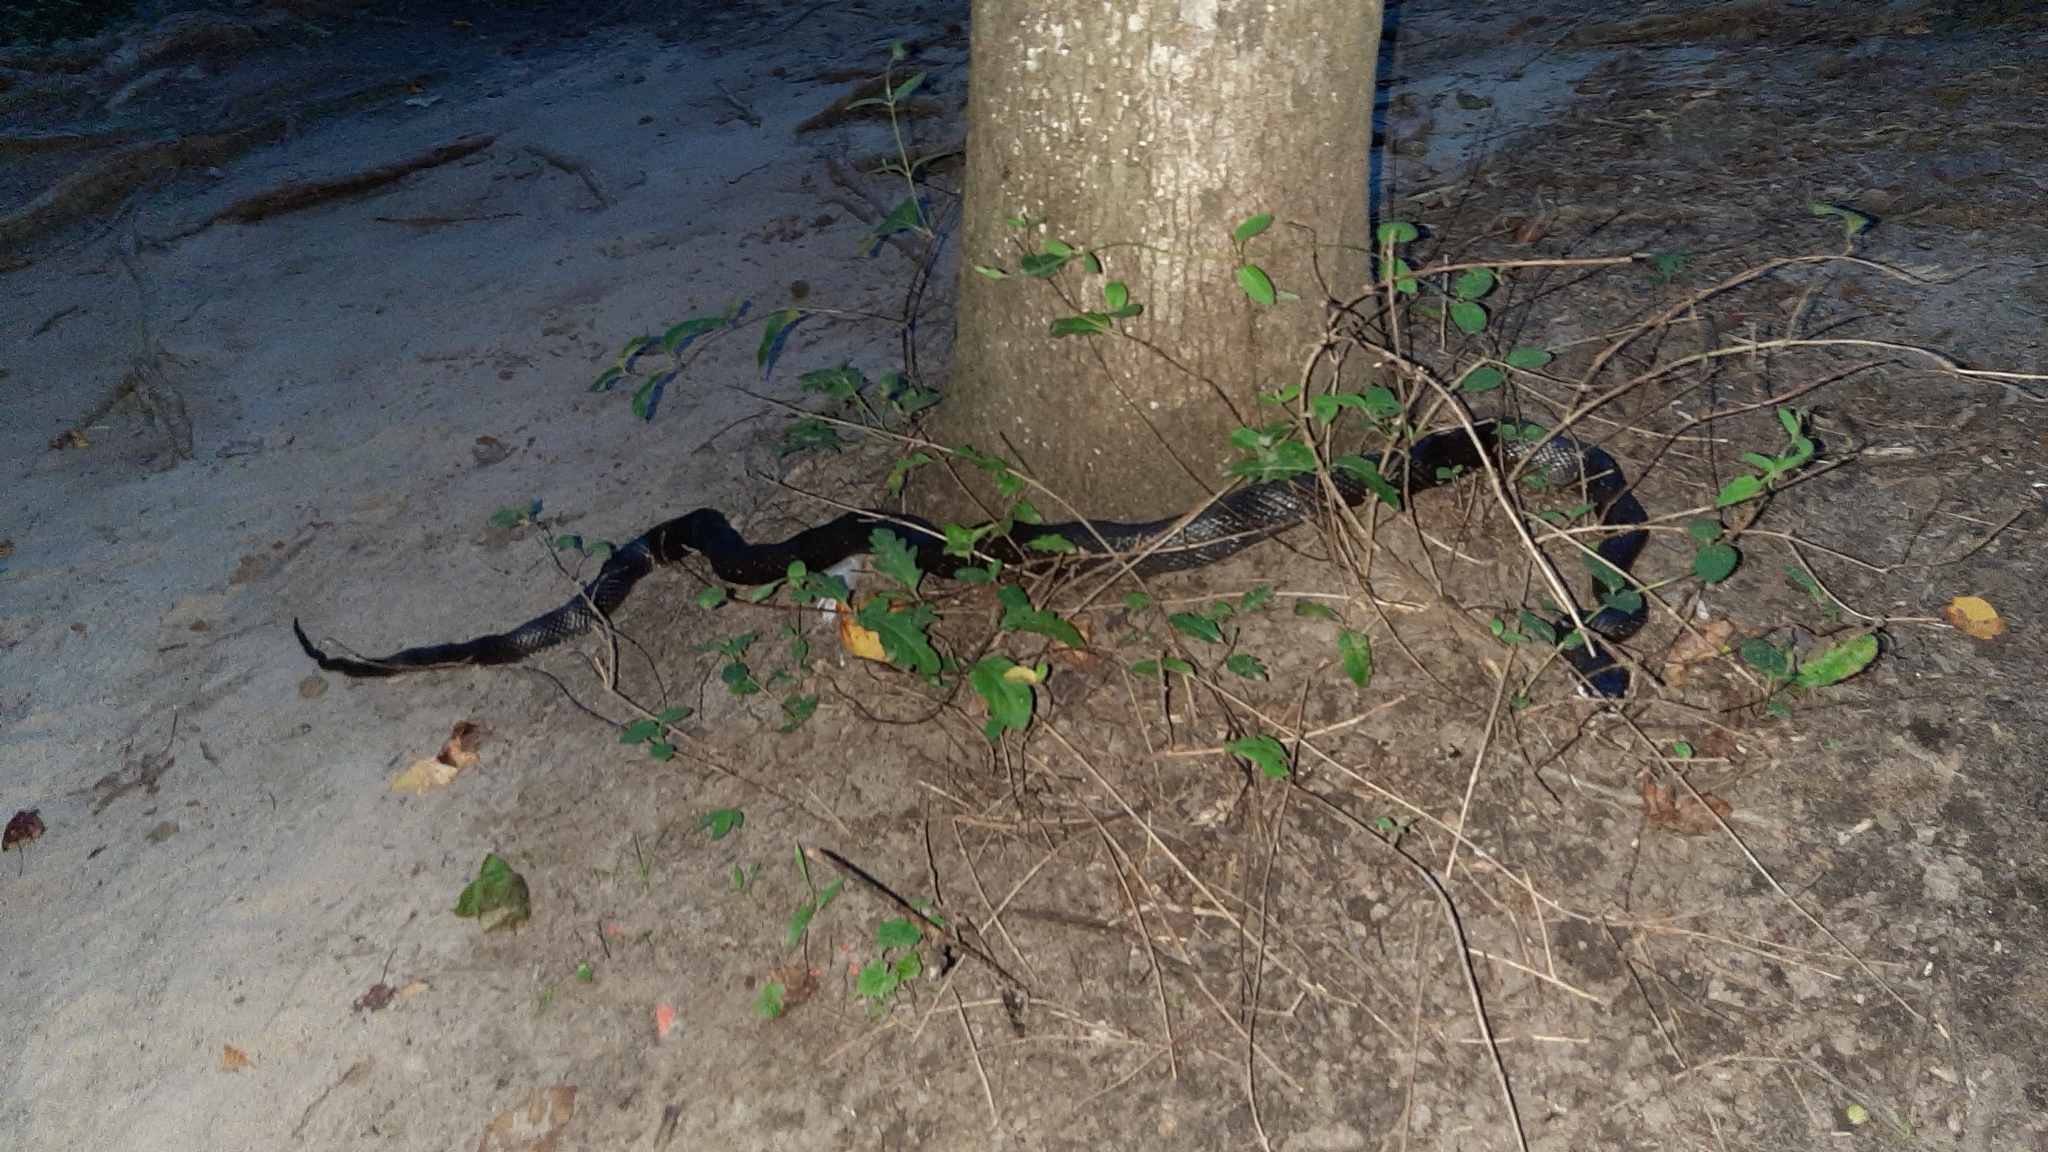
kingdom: Animalia
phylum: Chordata
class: Squamata
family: Colubridae
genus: Pantherophis
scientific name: Pantherophis alleghaniensis
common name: Eastern rat snake
